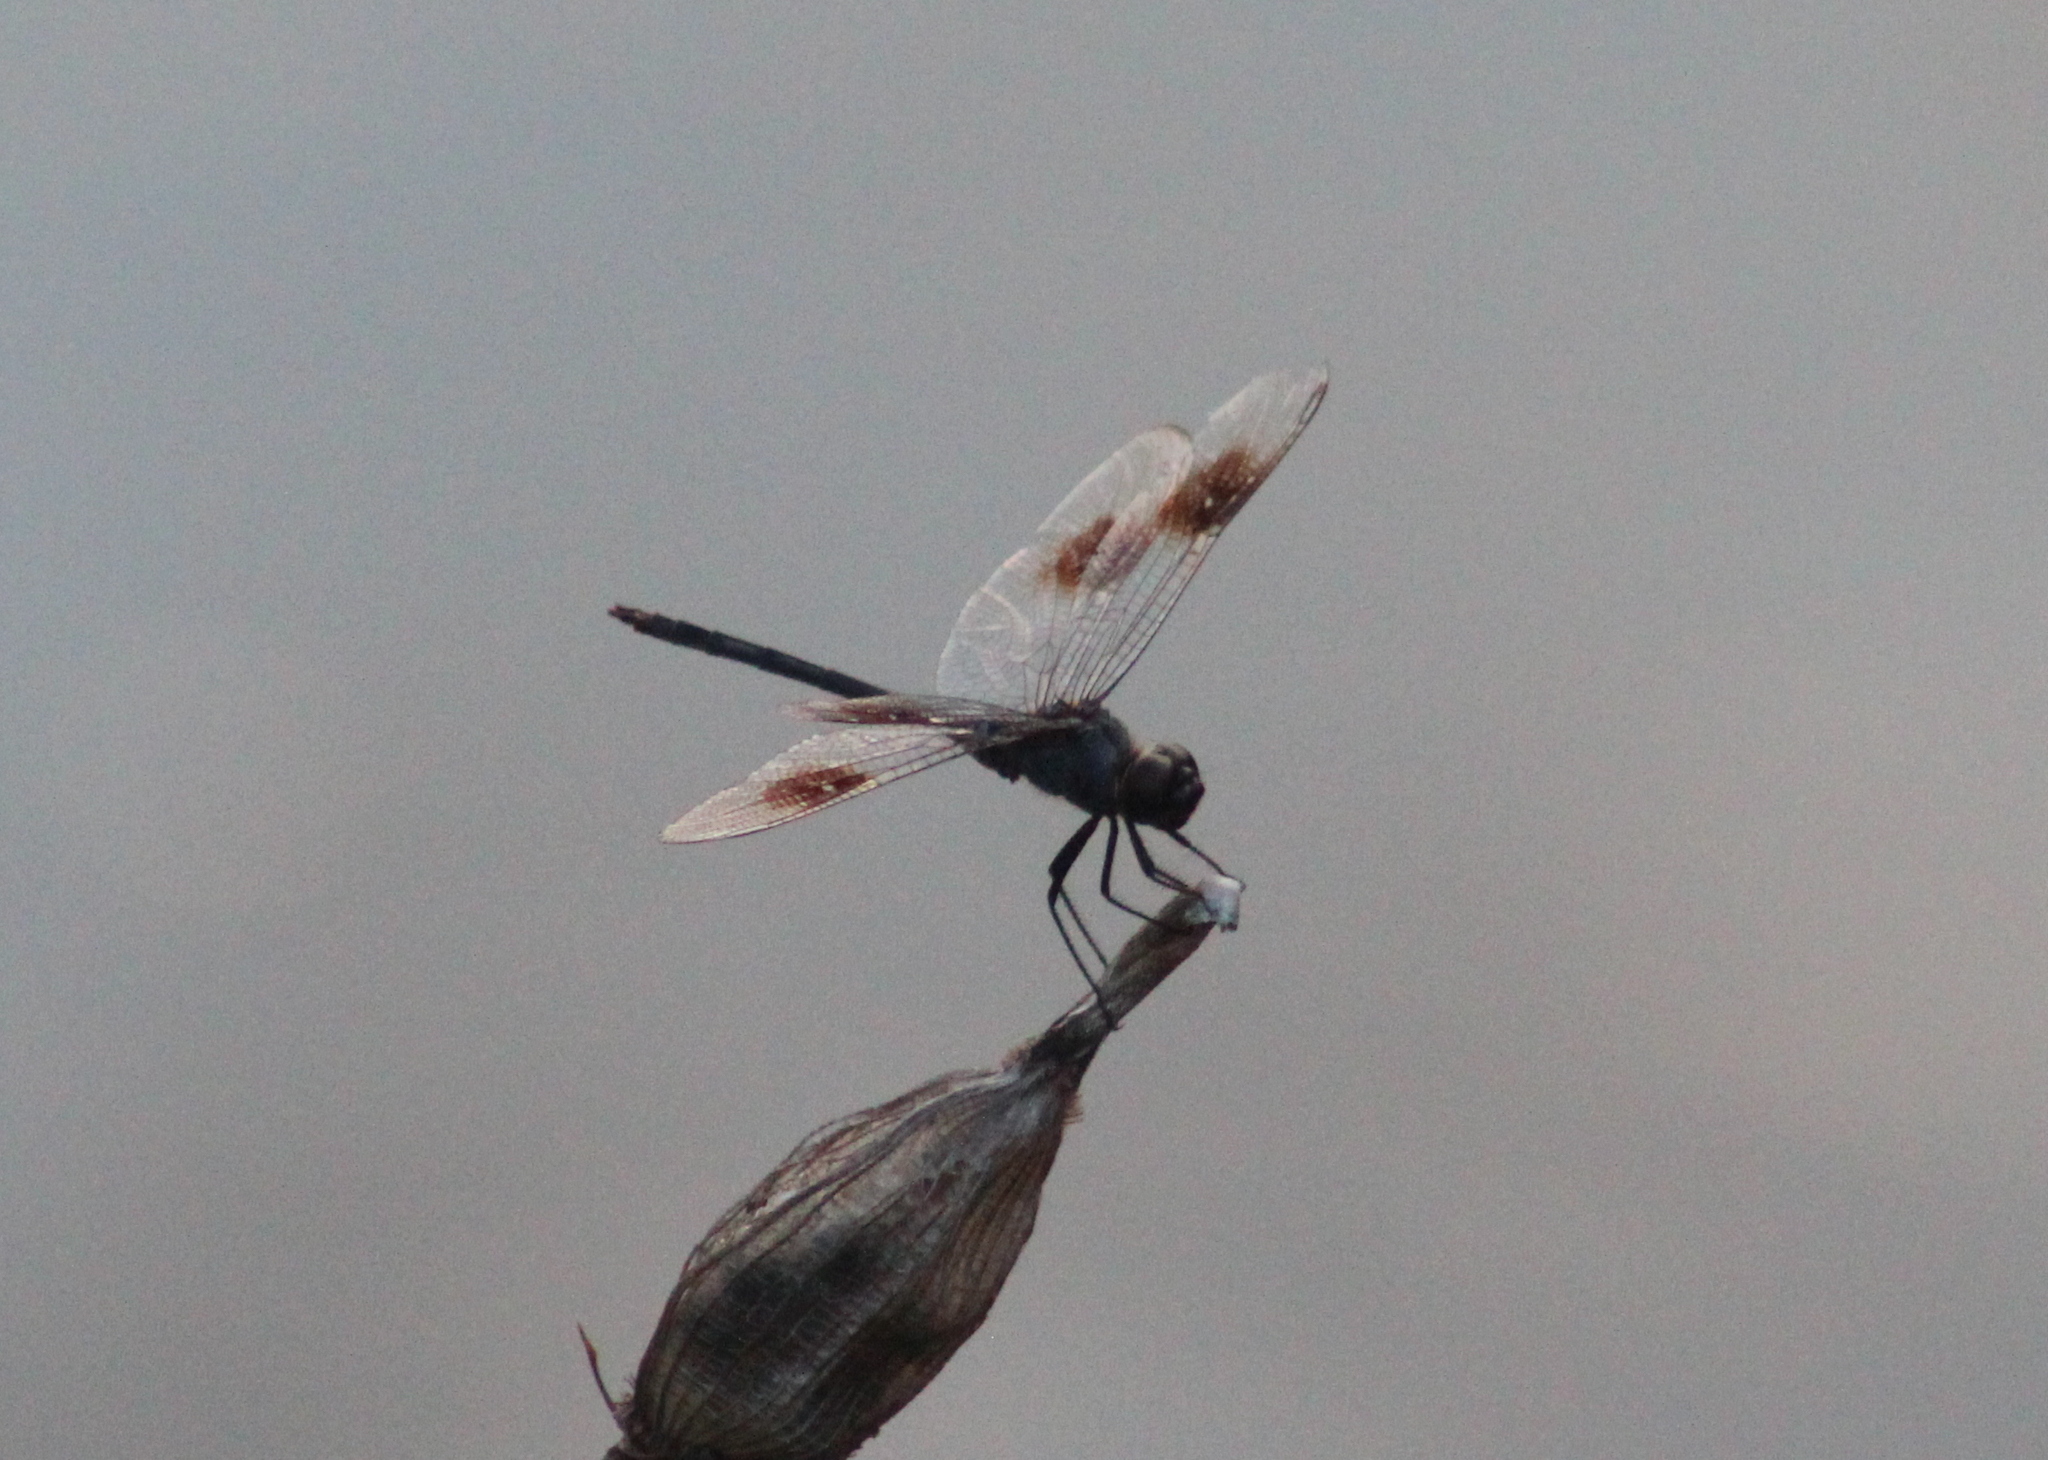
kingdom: Animalia
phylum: Arthropoda
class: Insecta
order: Odonata
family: Libellulidae
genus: Brachymesia
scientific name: Brachymesia gravida
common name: Four-spotted pennant
